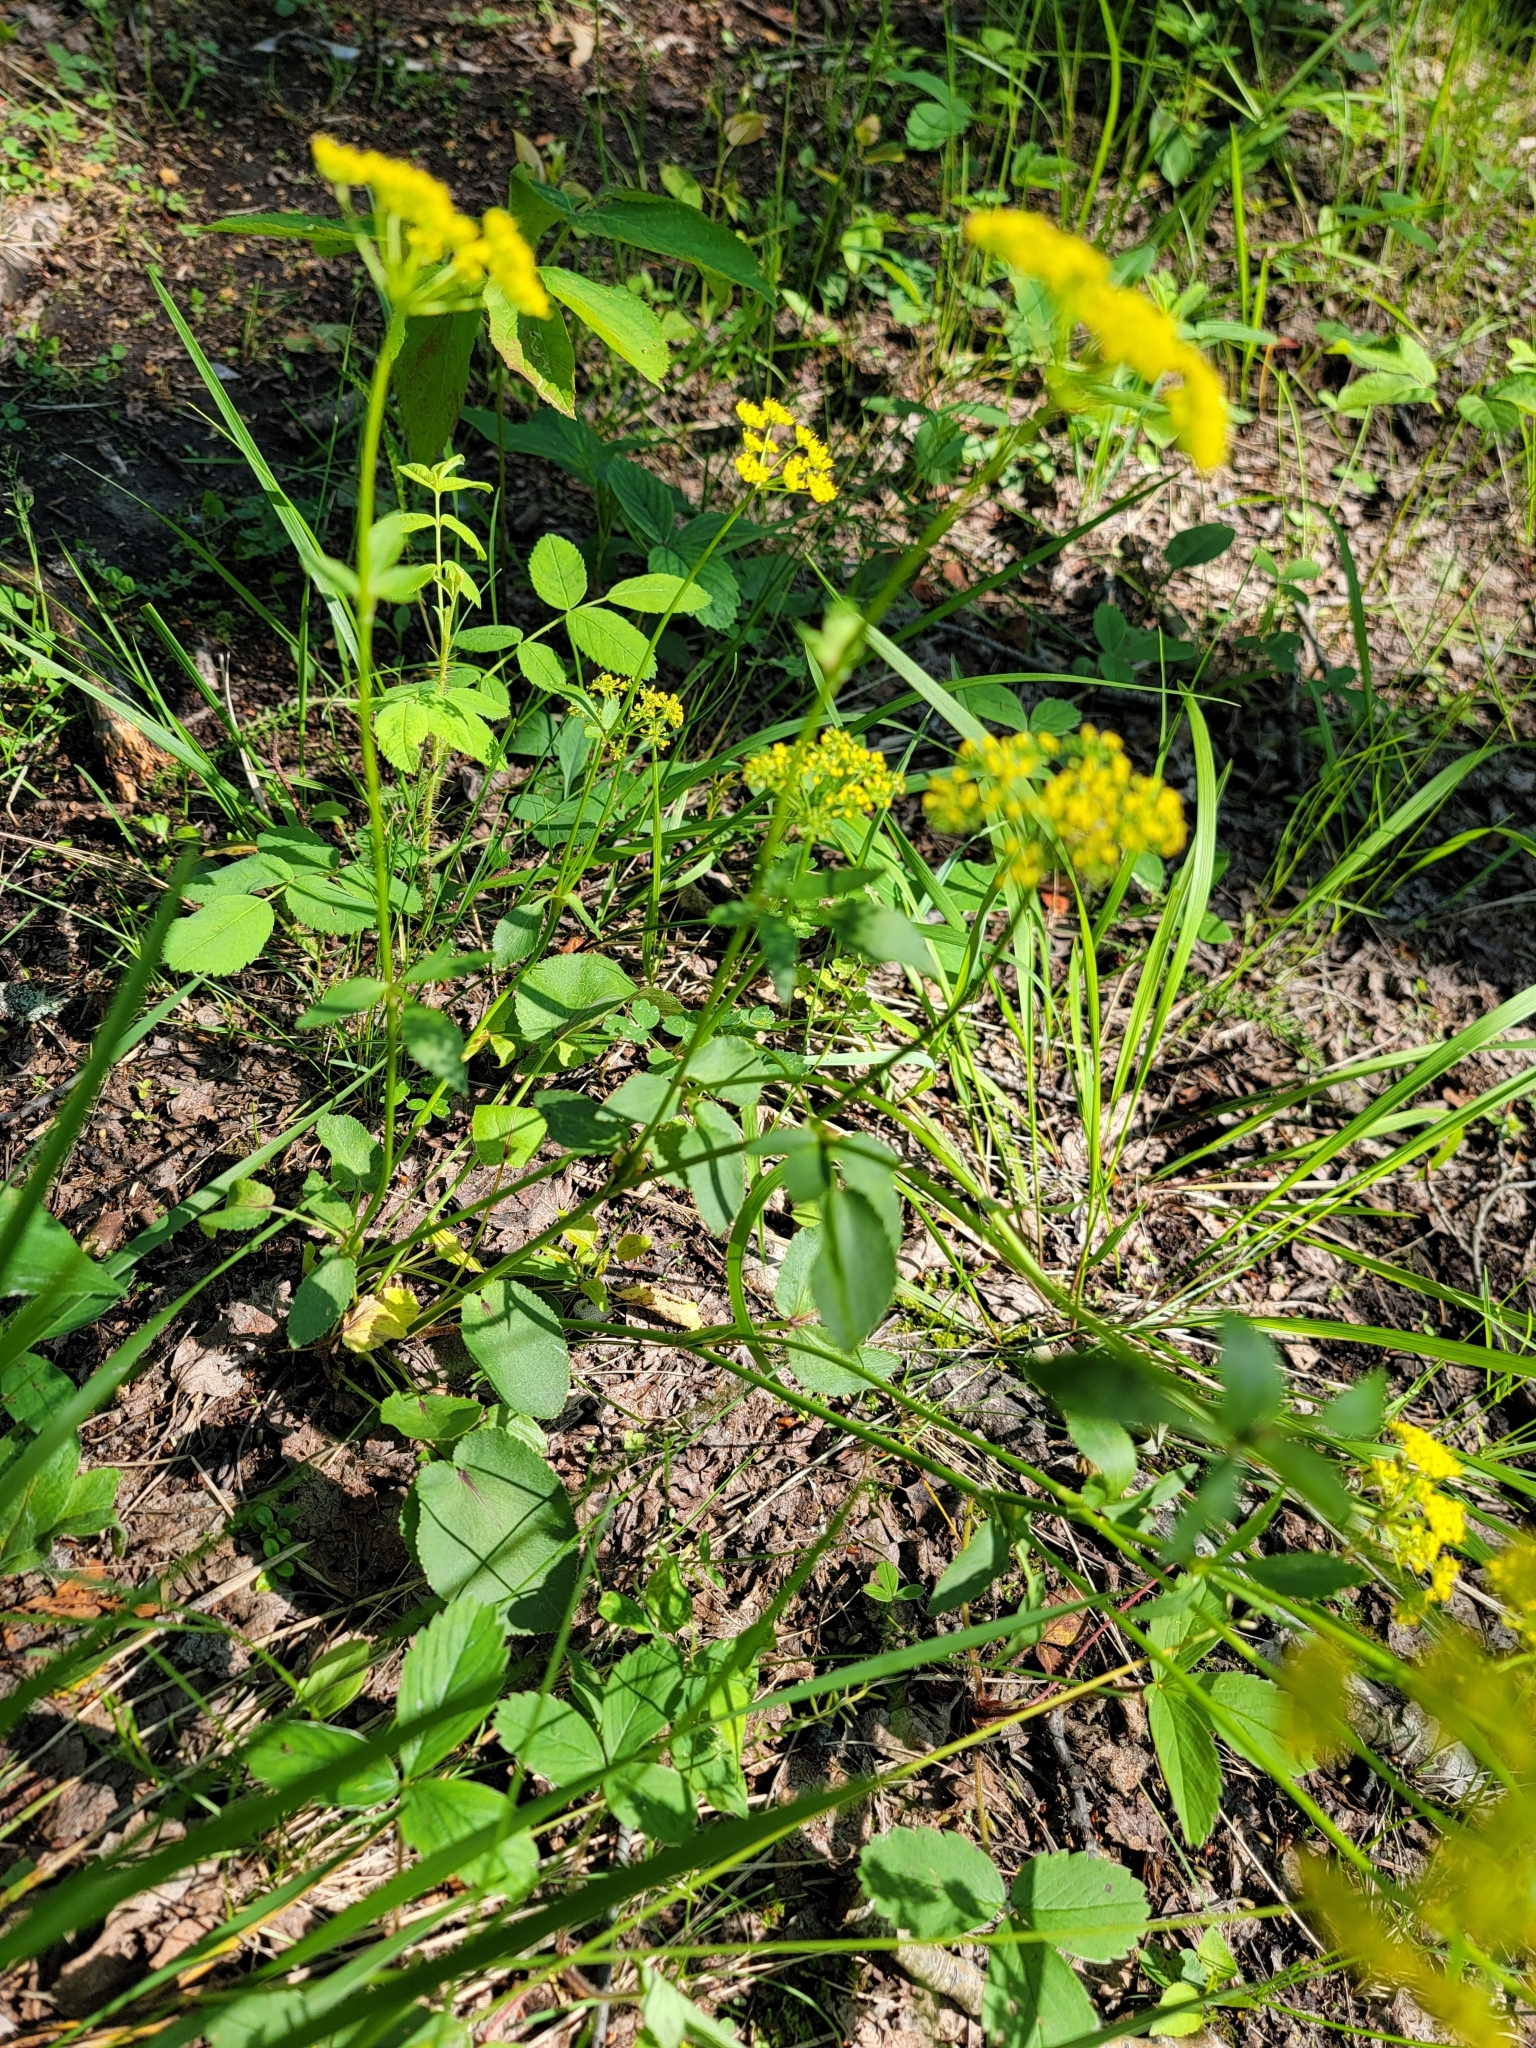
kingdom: Plantae
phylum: Tracheophyta
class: Magnoliopsida
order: Apiales
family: Apiaceae
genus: Zizia
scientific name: Zizia aptera
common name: Heart-leaved alexanders
